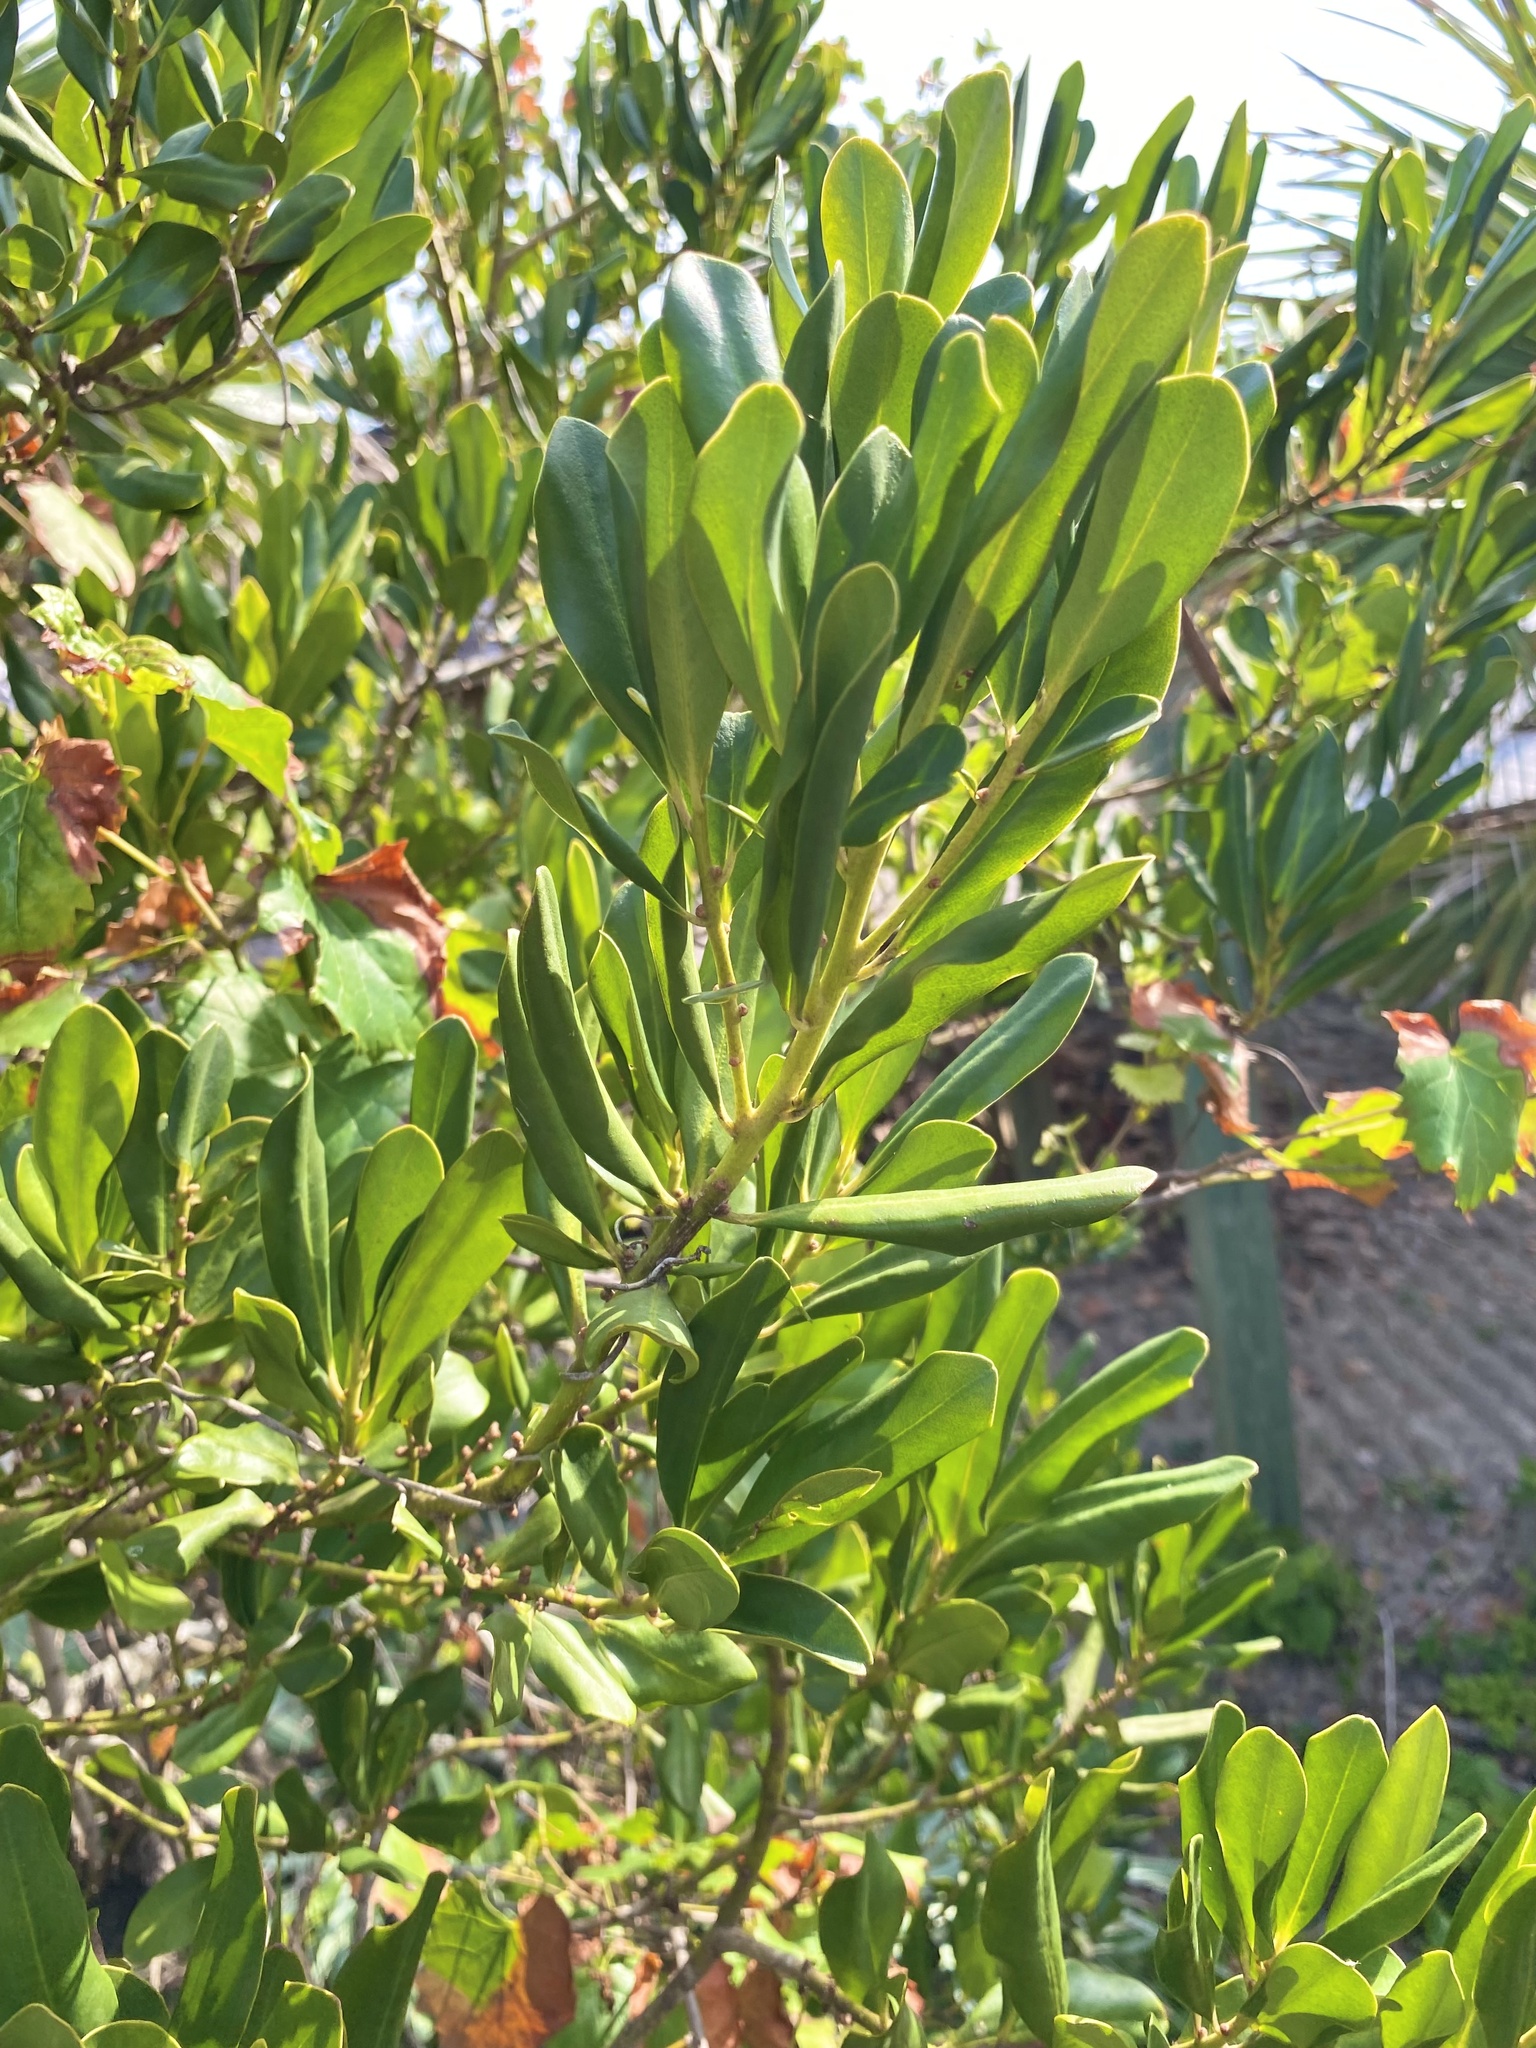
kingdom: Plantae
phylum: Tracheophyta
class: Magnoliopsida
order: Ericales
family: Primulaceae
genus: Myrsine
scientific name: Myrsine floridana
